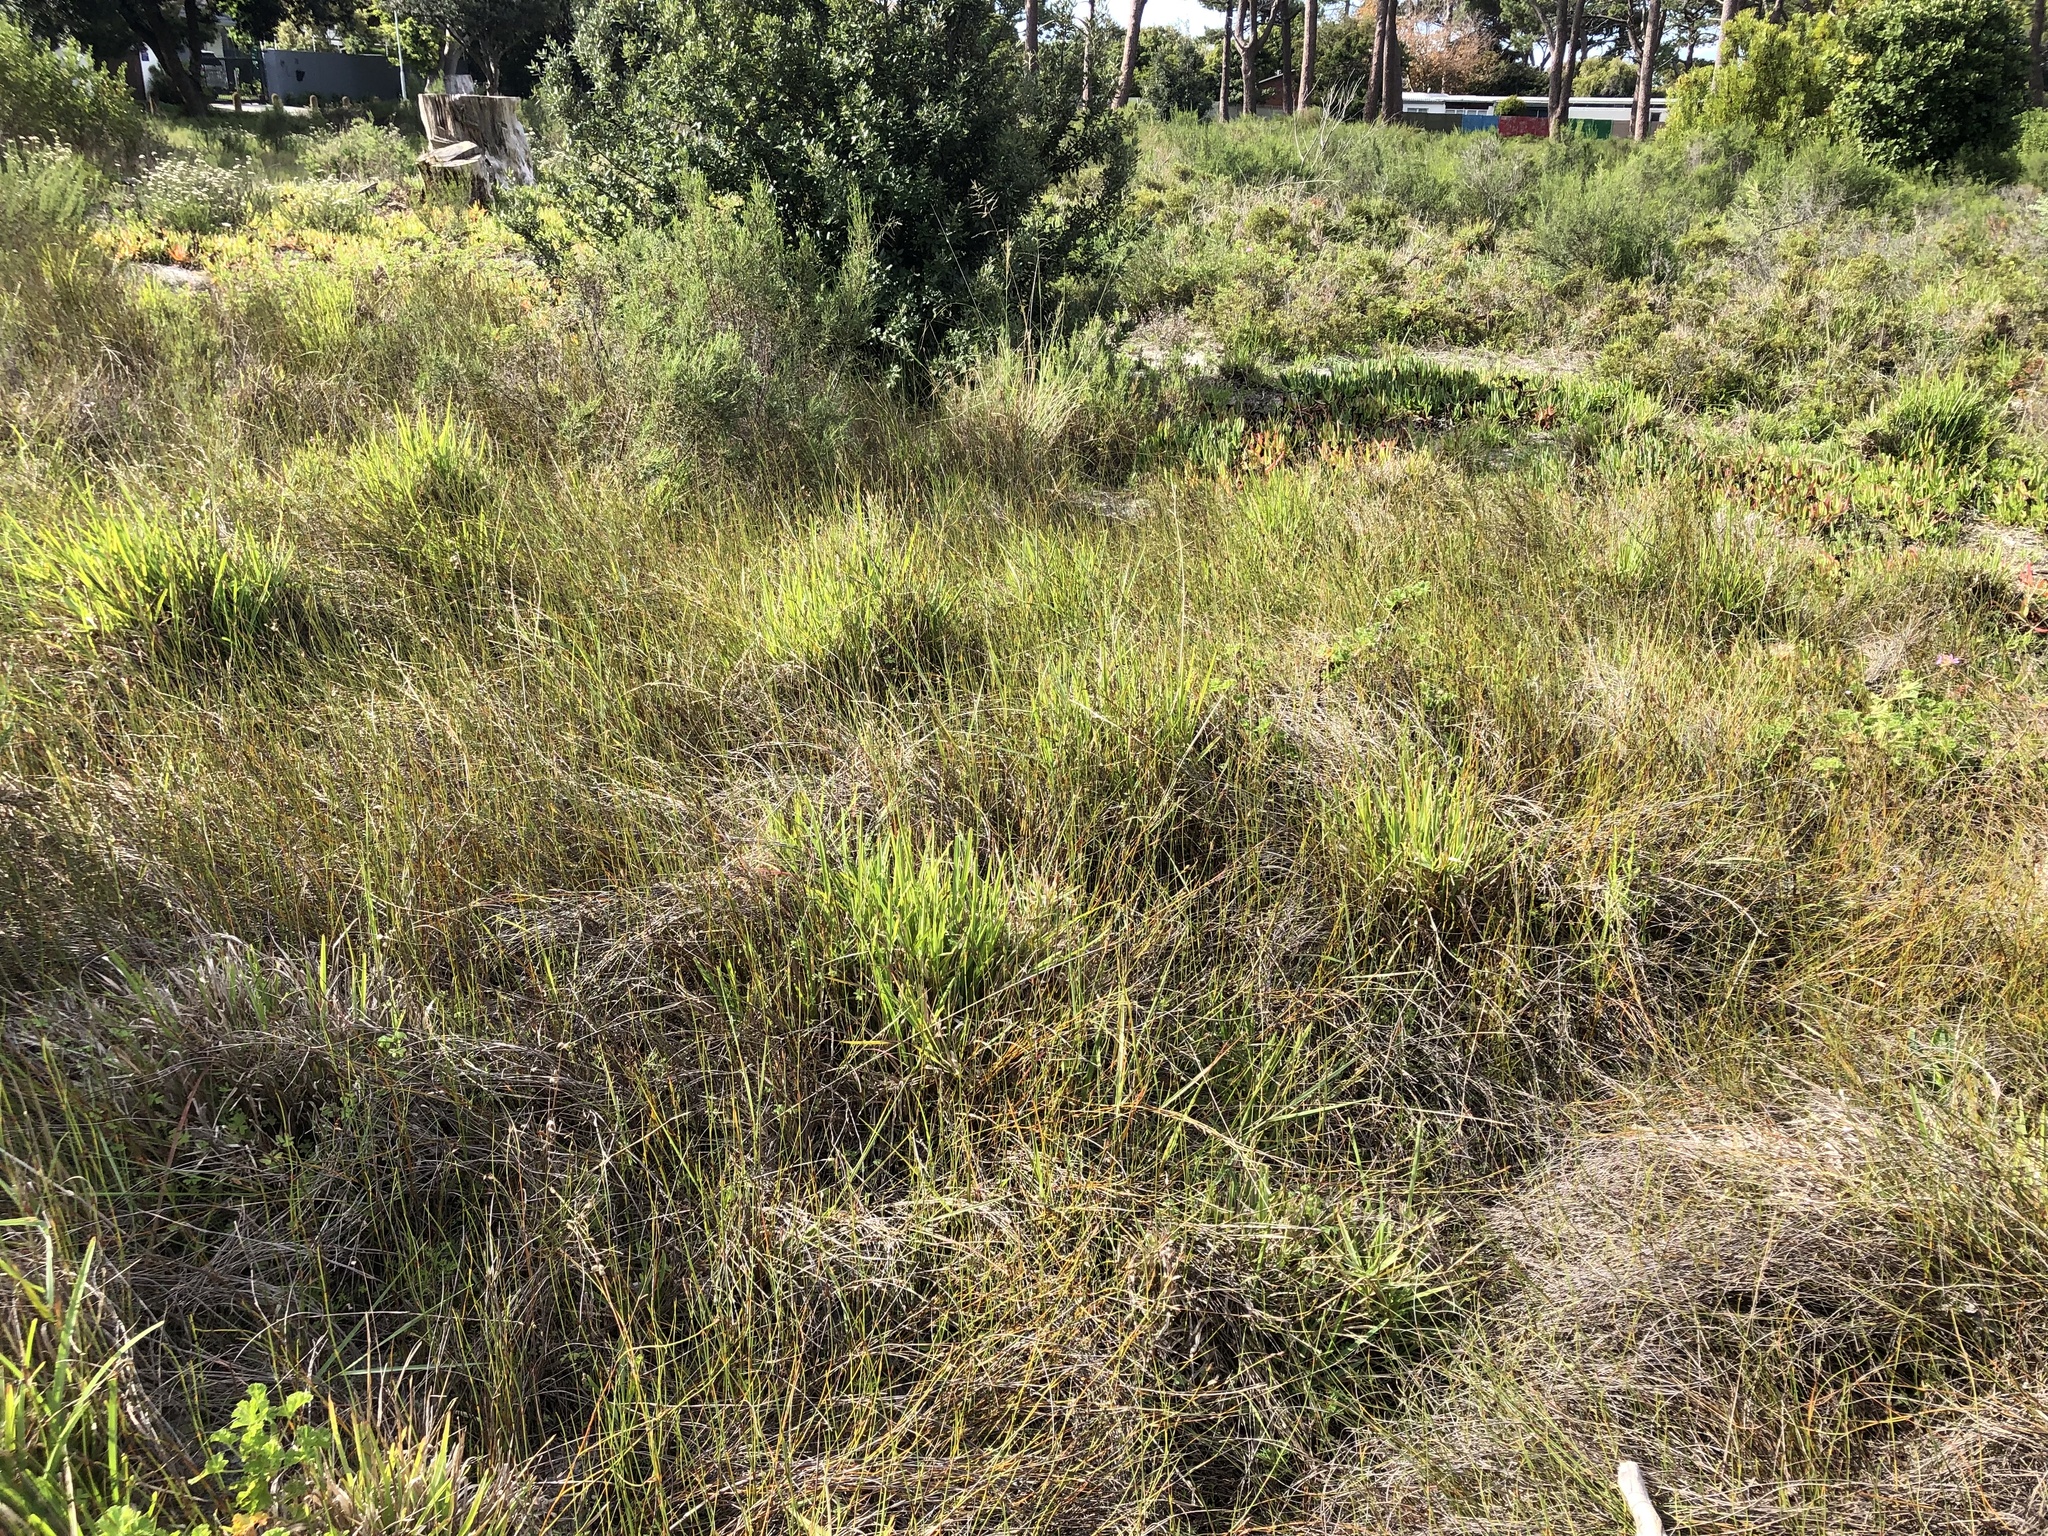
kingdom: Plantae
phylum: Tracheophyta
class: Liliopsida
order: Poales
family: Restionaceae
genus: Willdenowia
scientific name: Willdenowia sulcata
